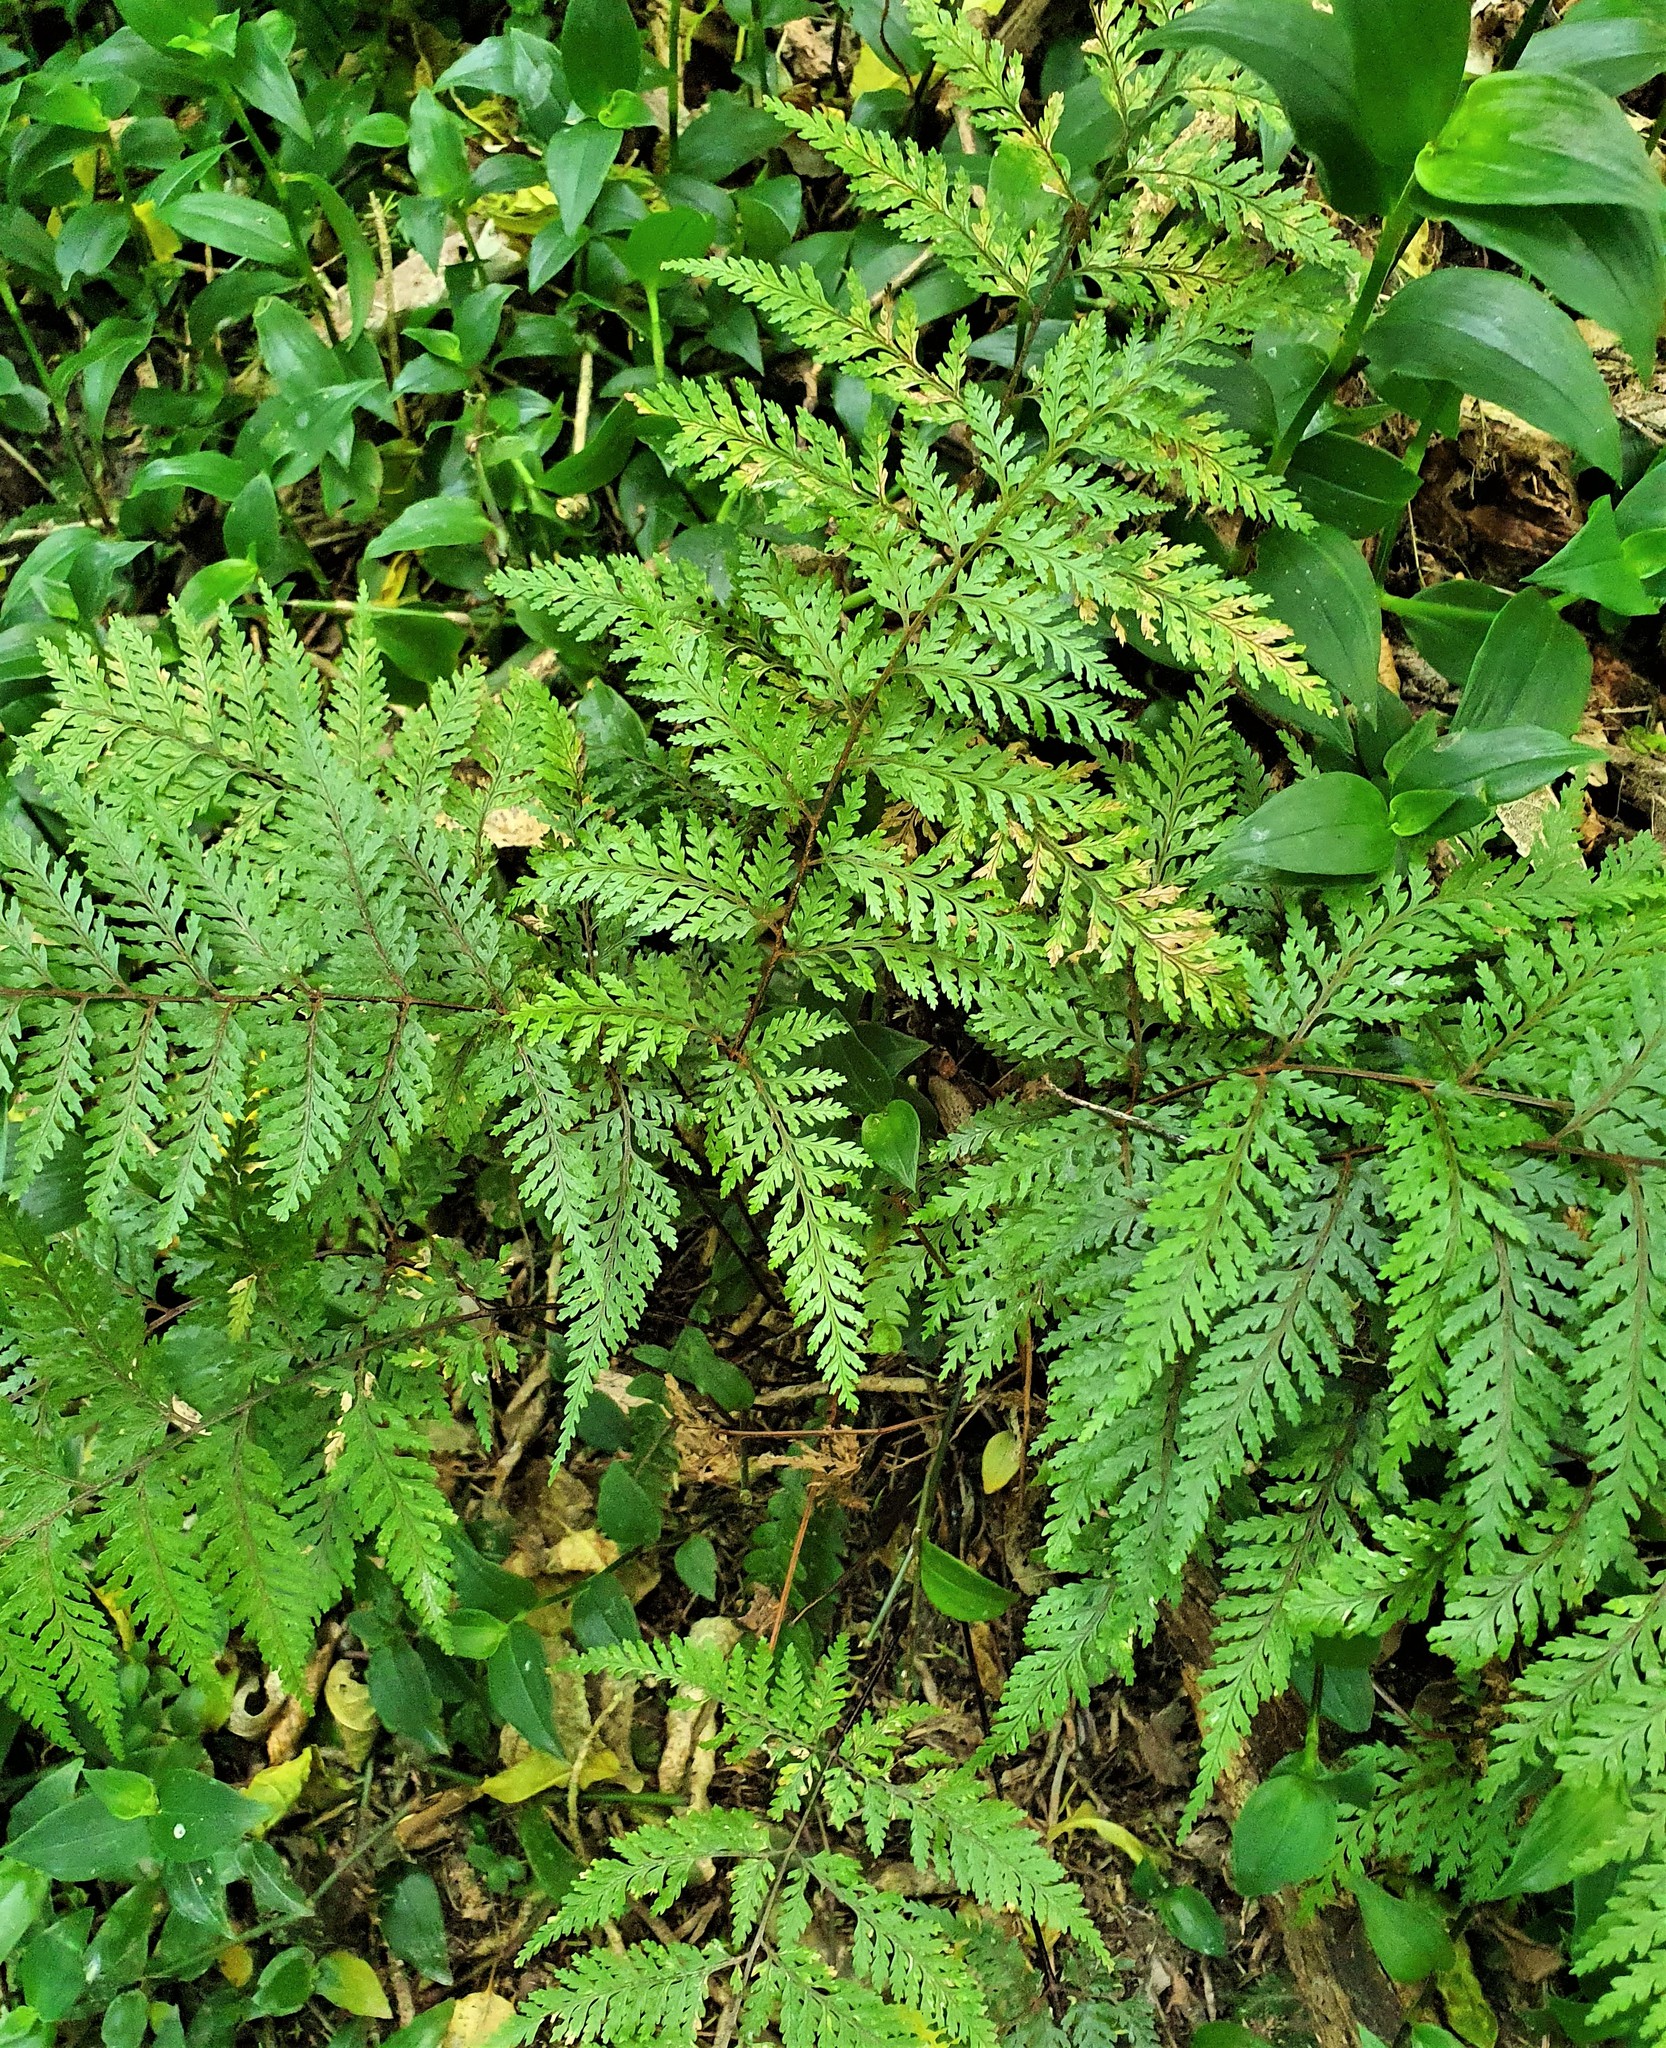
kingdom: Plantae
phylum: Tracheophyta
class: Polypodiopsida
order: Polypodiales
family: Dryopteridaceae
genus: Parapolystichum
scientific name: Parapolystichum glabellum
